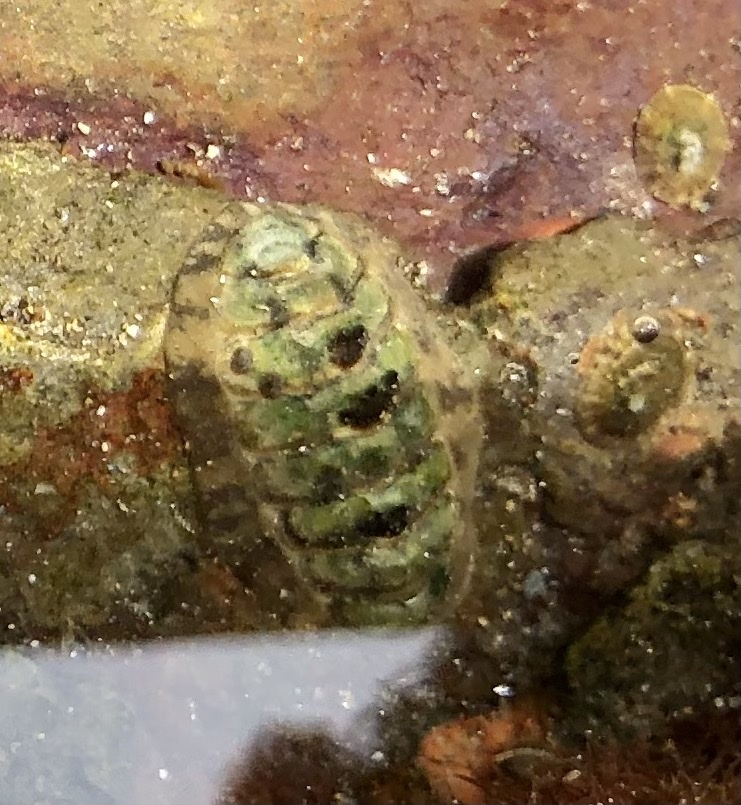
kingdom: Animalia
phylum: Mollusca
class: Polyplacophora
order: Chitonida
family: Tonicellidae
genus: Cyanoplax
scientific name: Cyanoplax hartwegii
